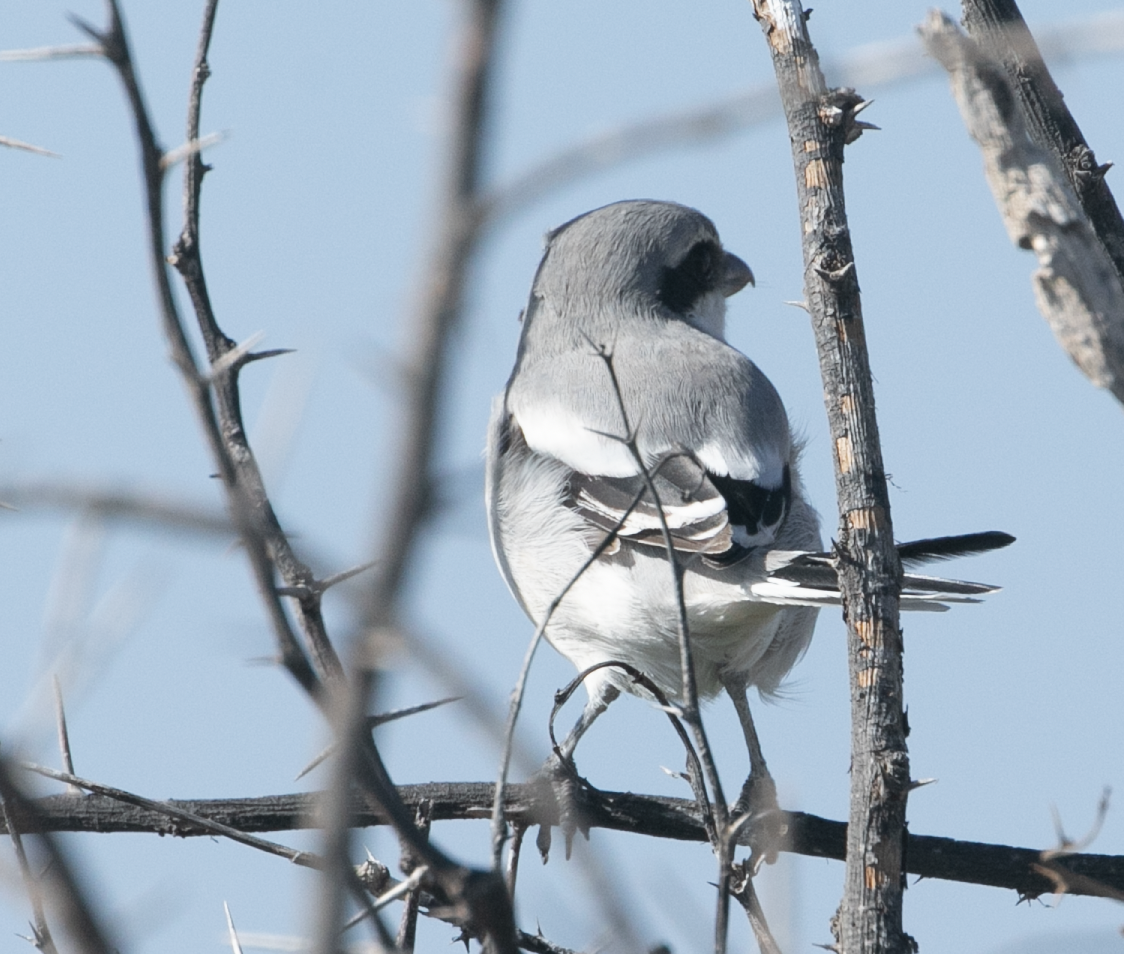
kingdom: Animalia
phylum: Chordata
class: Aves
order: Passeriformes
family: Laniidae
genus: Lanius
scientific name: Lanius excubitor
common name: Great grey shrike
